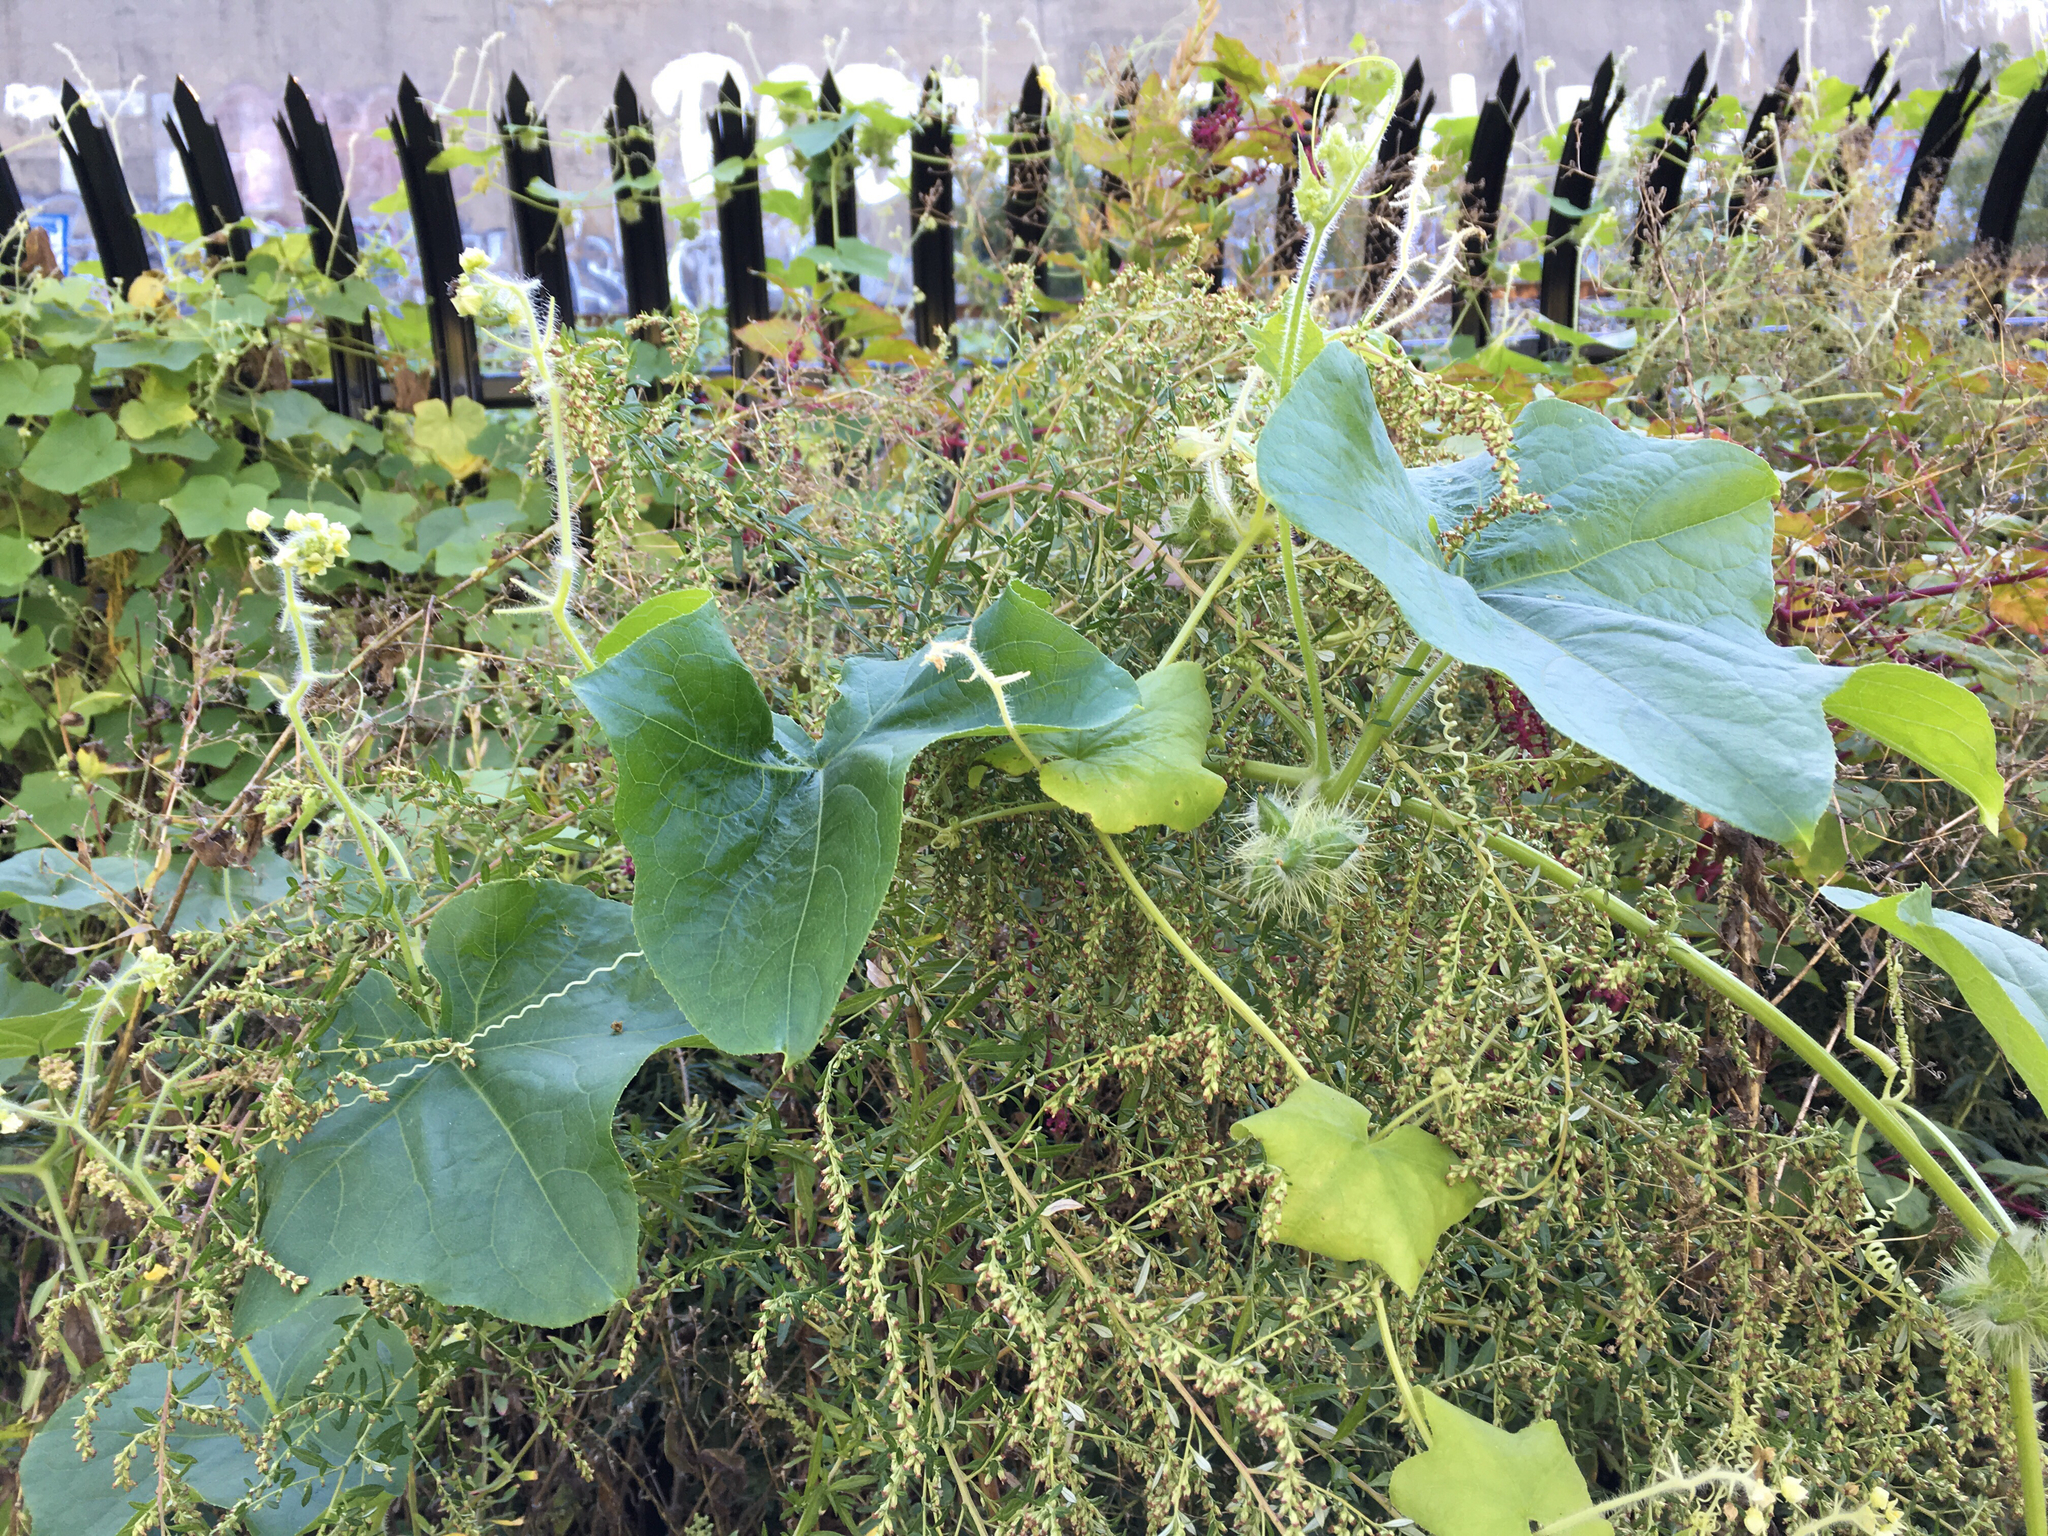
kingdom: Plantae
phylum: Tracheophyta
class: Magnoliopsida
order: Cucurbitales
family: Cucurbitaceae
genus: Sicyos
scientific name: Sicyos angulatus
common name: Angled burr cucumber
